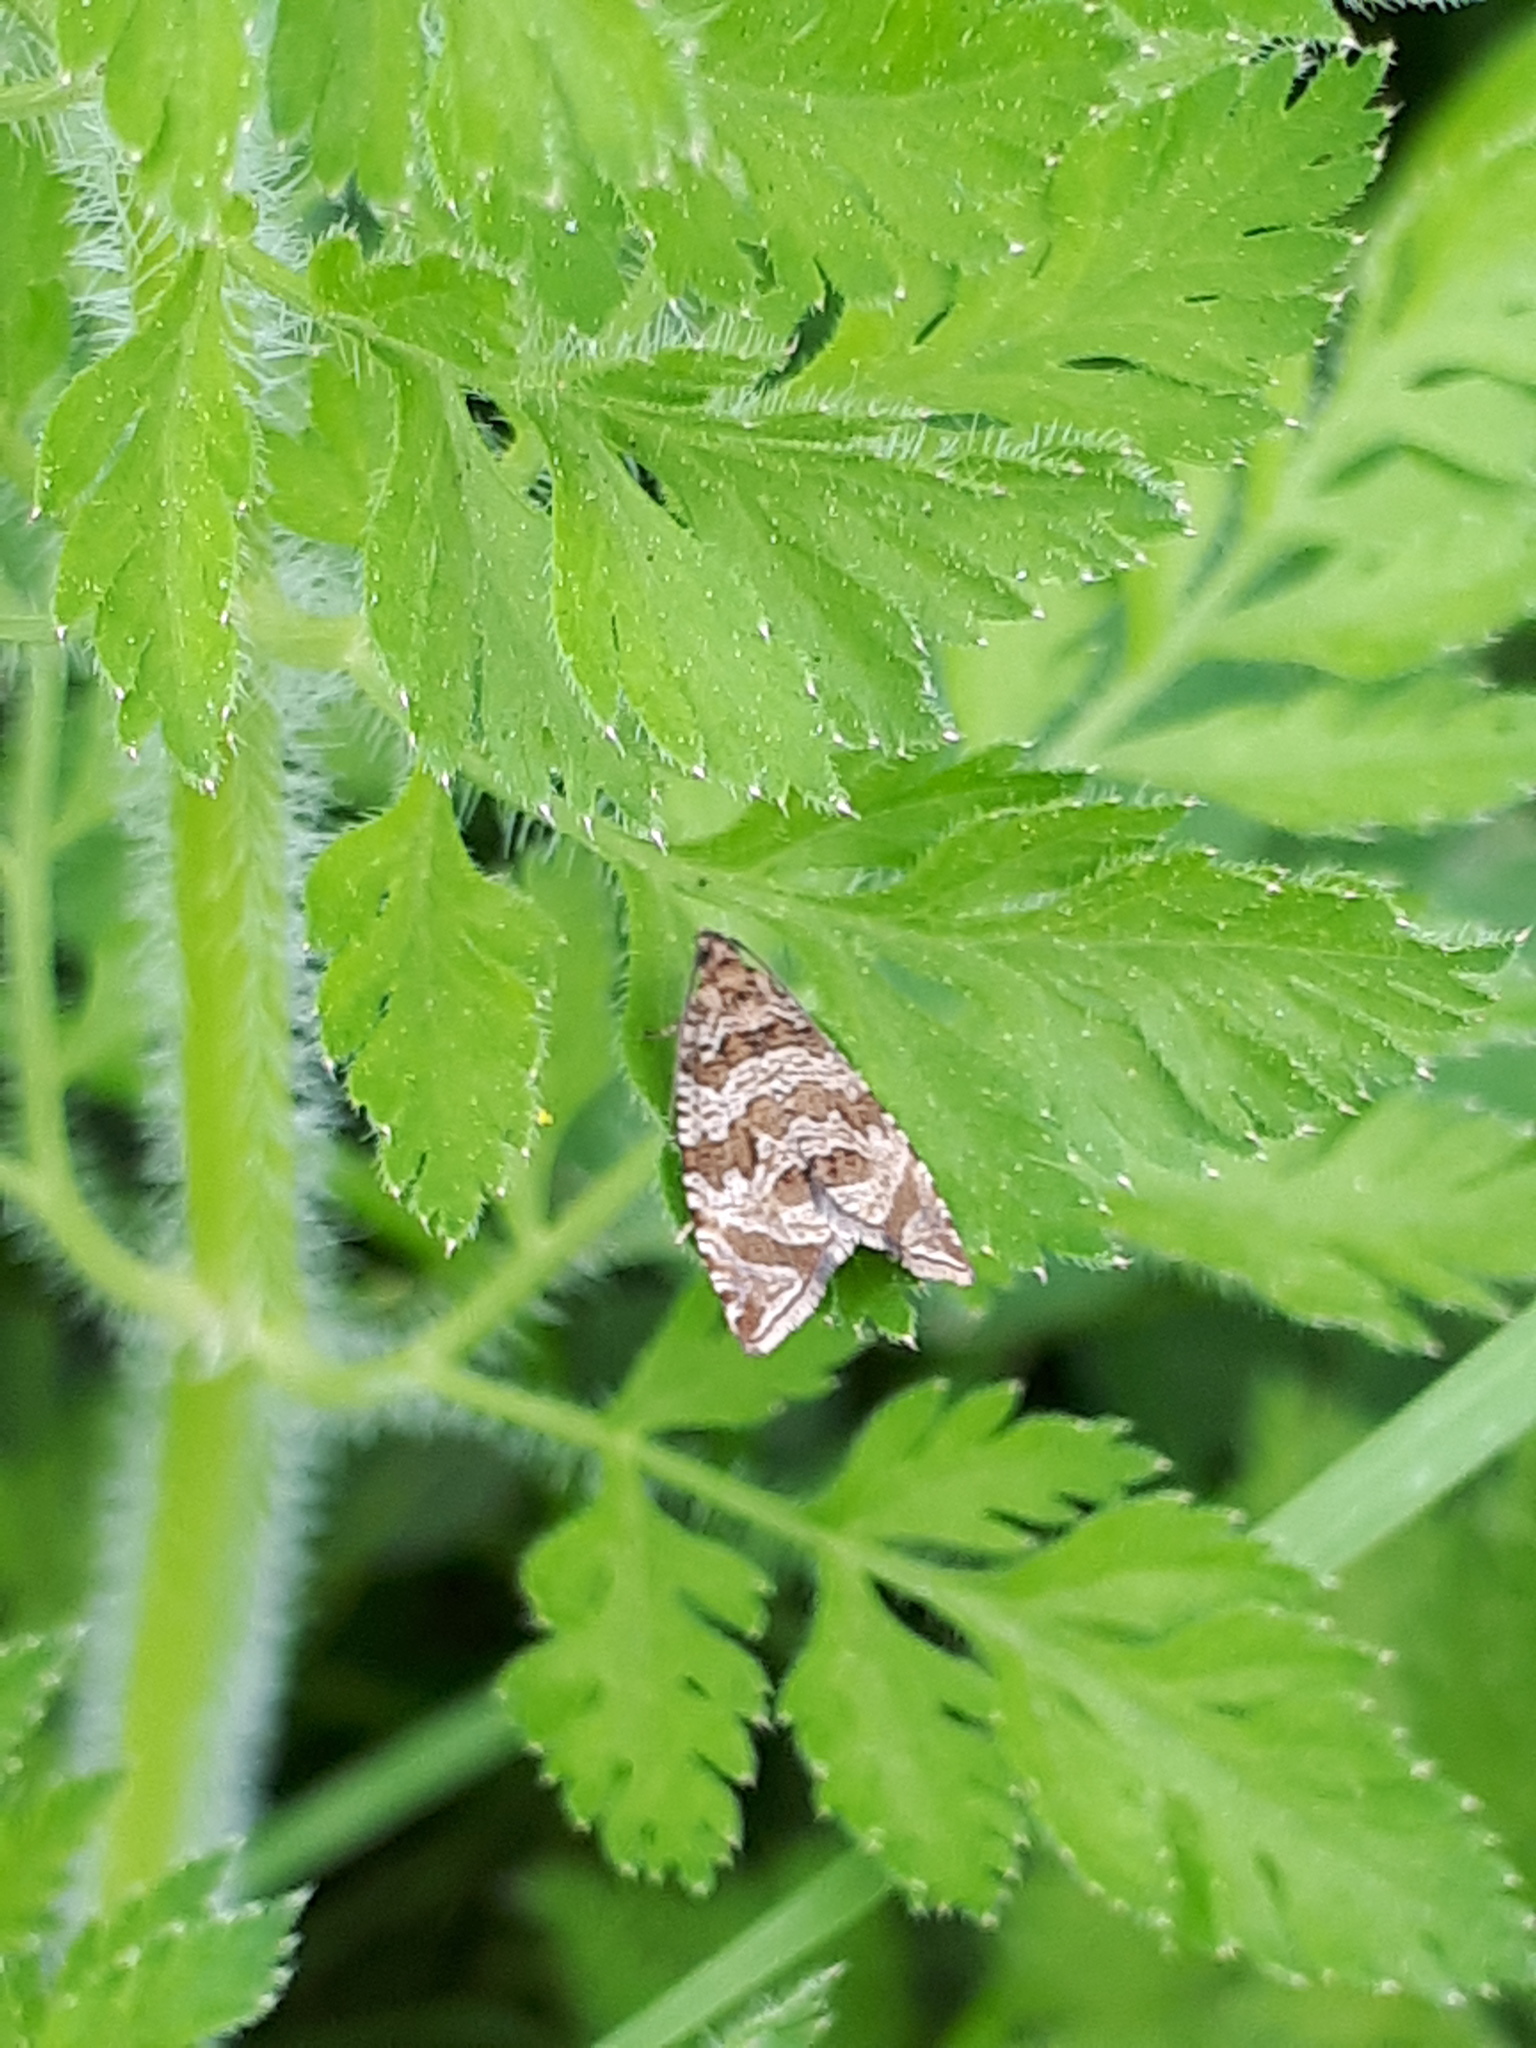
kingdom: Animalia
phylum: Arthropoda
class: Insecta
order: Lepidoptera
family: Tortricidae
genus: Syricoris
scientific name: Syricoris rivulana
